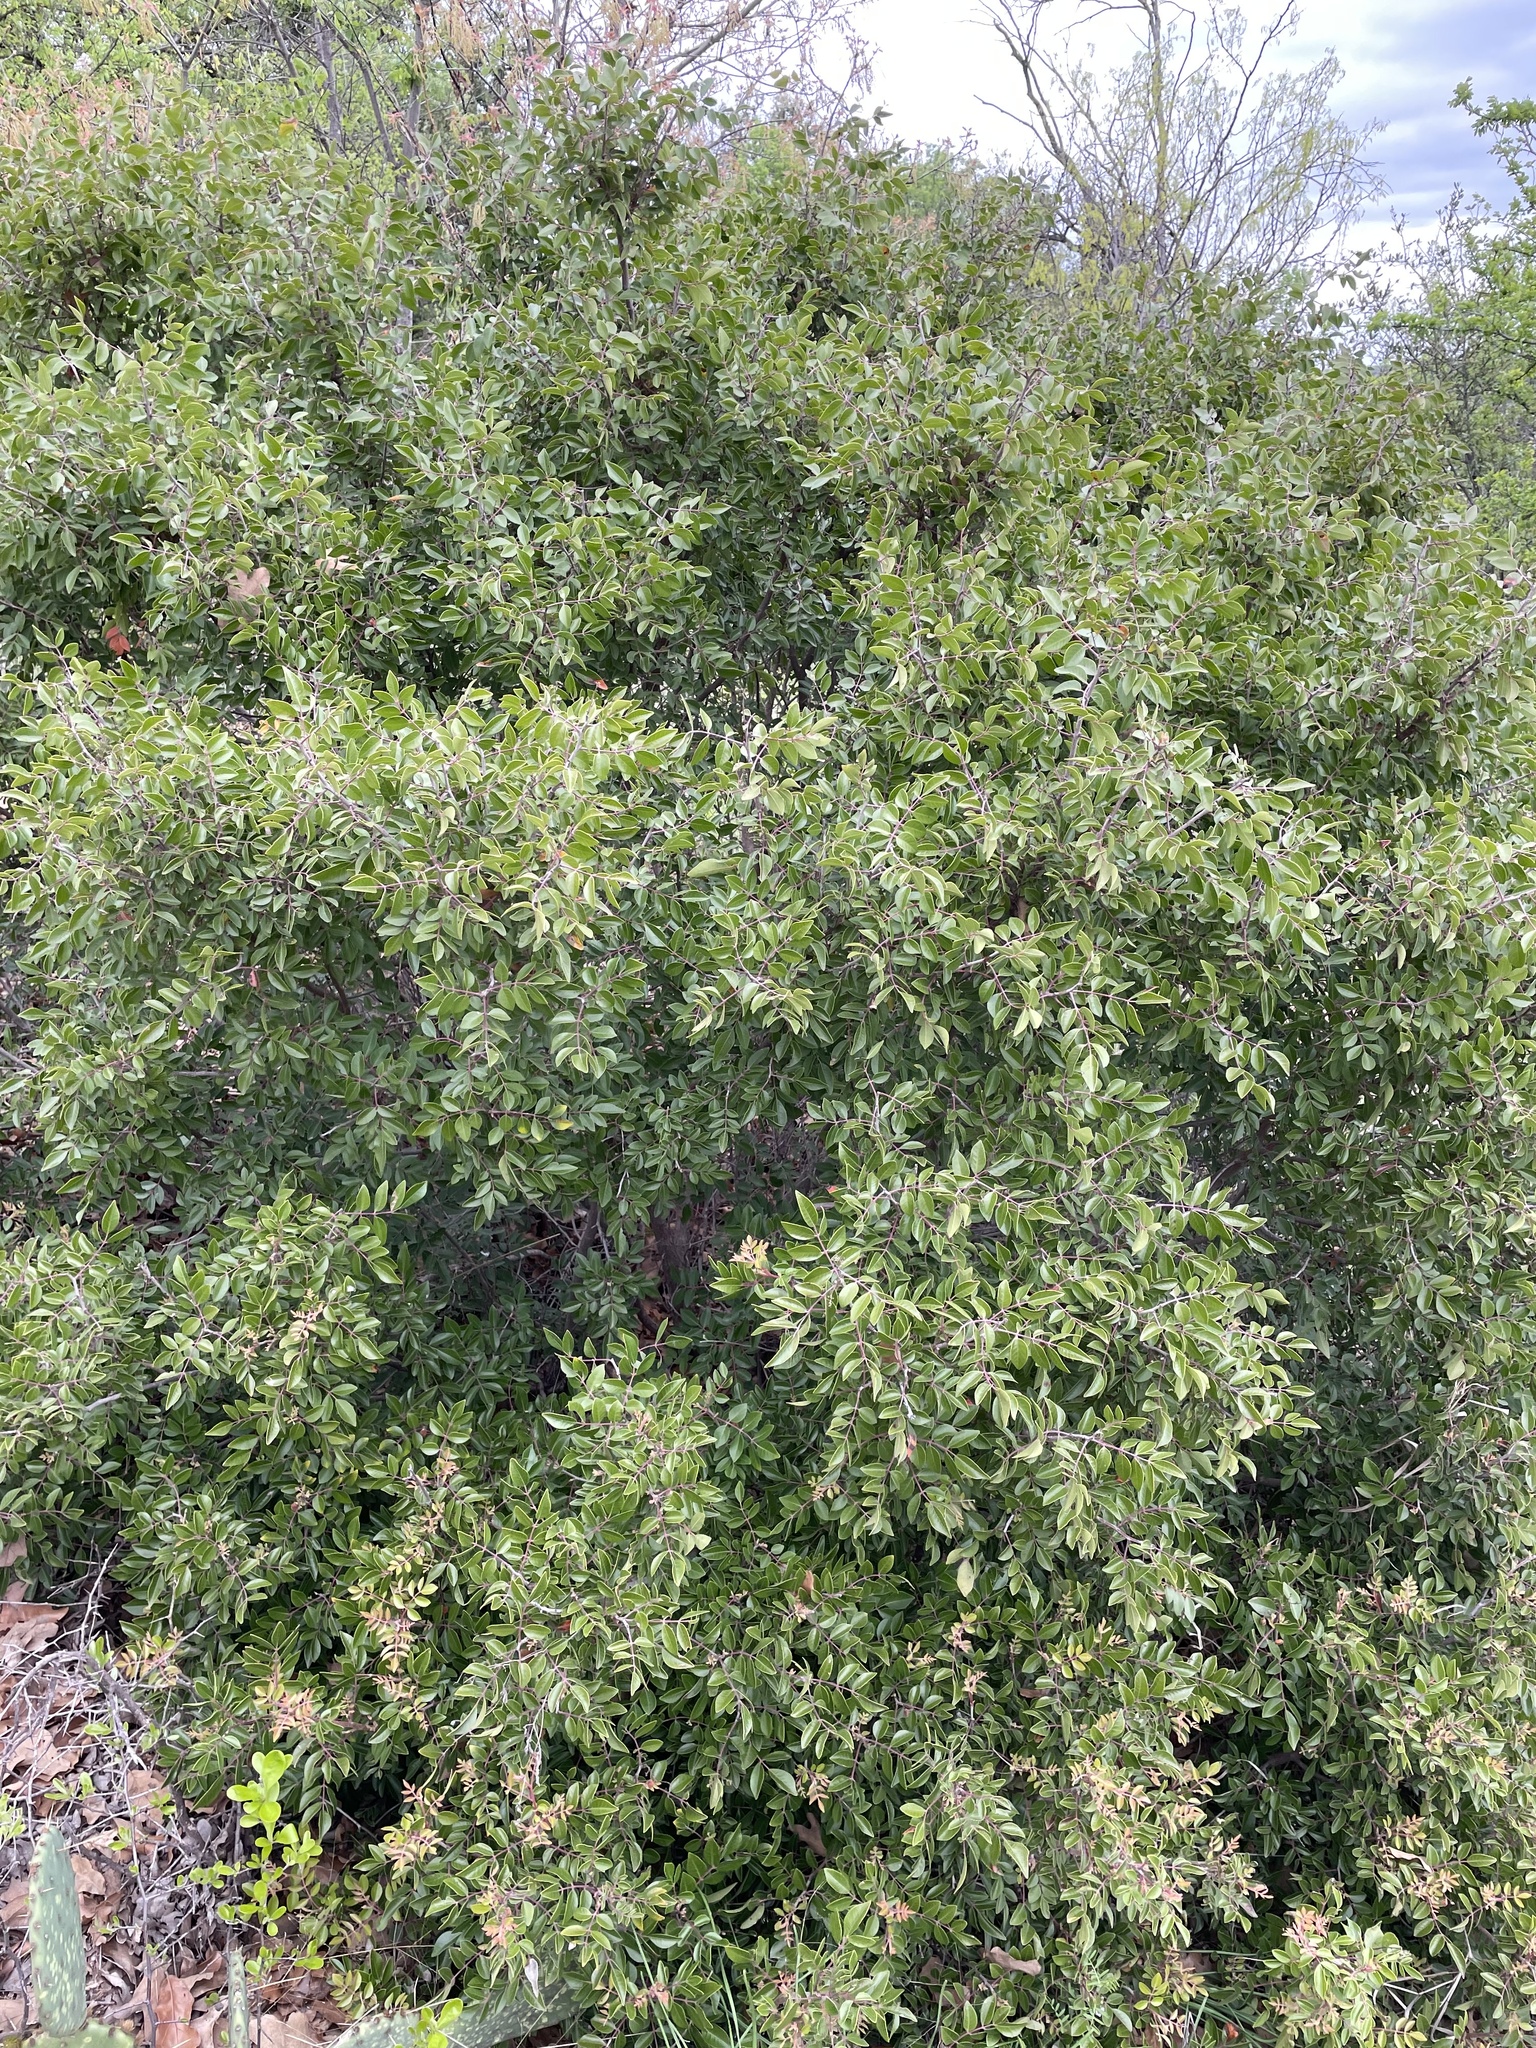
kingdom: Plantae
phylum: Tracheophyta
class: Magnoliopsida
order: Sapindales
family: Anacardiaceae
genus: Rhus
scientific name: Rhus virens
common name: Evergreen sumac
